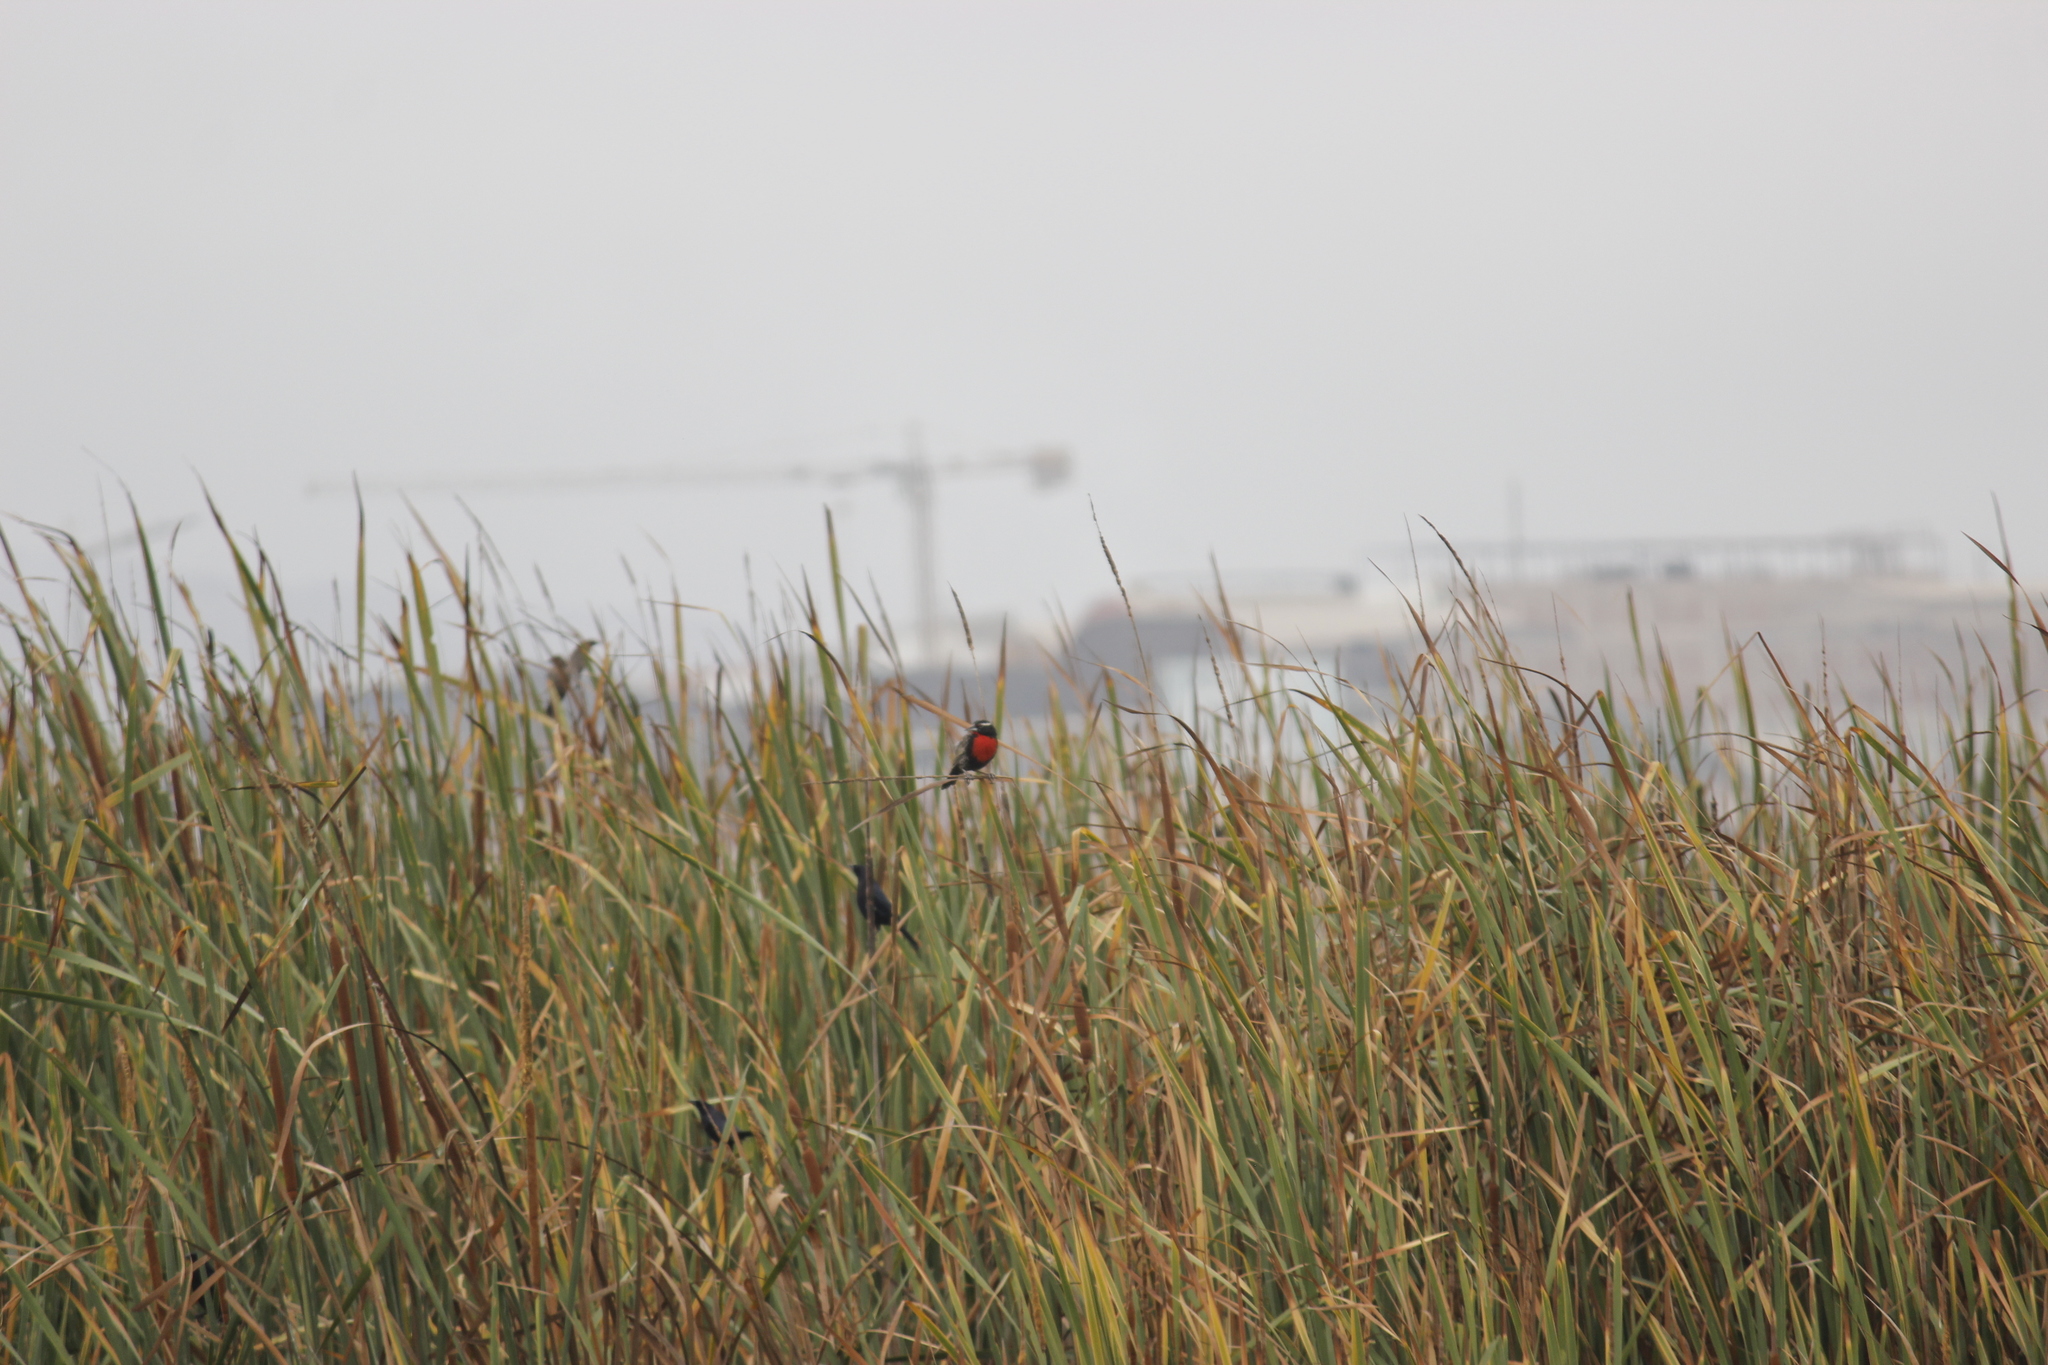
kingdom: Animalia
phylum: Chordata
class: Aves
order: Passeriformes
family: Icteridae
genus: Sturnella
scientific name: Sturnella bellicosa
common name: Peruvian meadowlark
